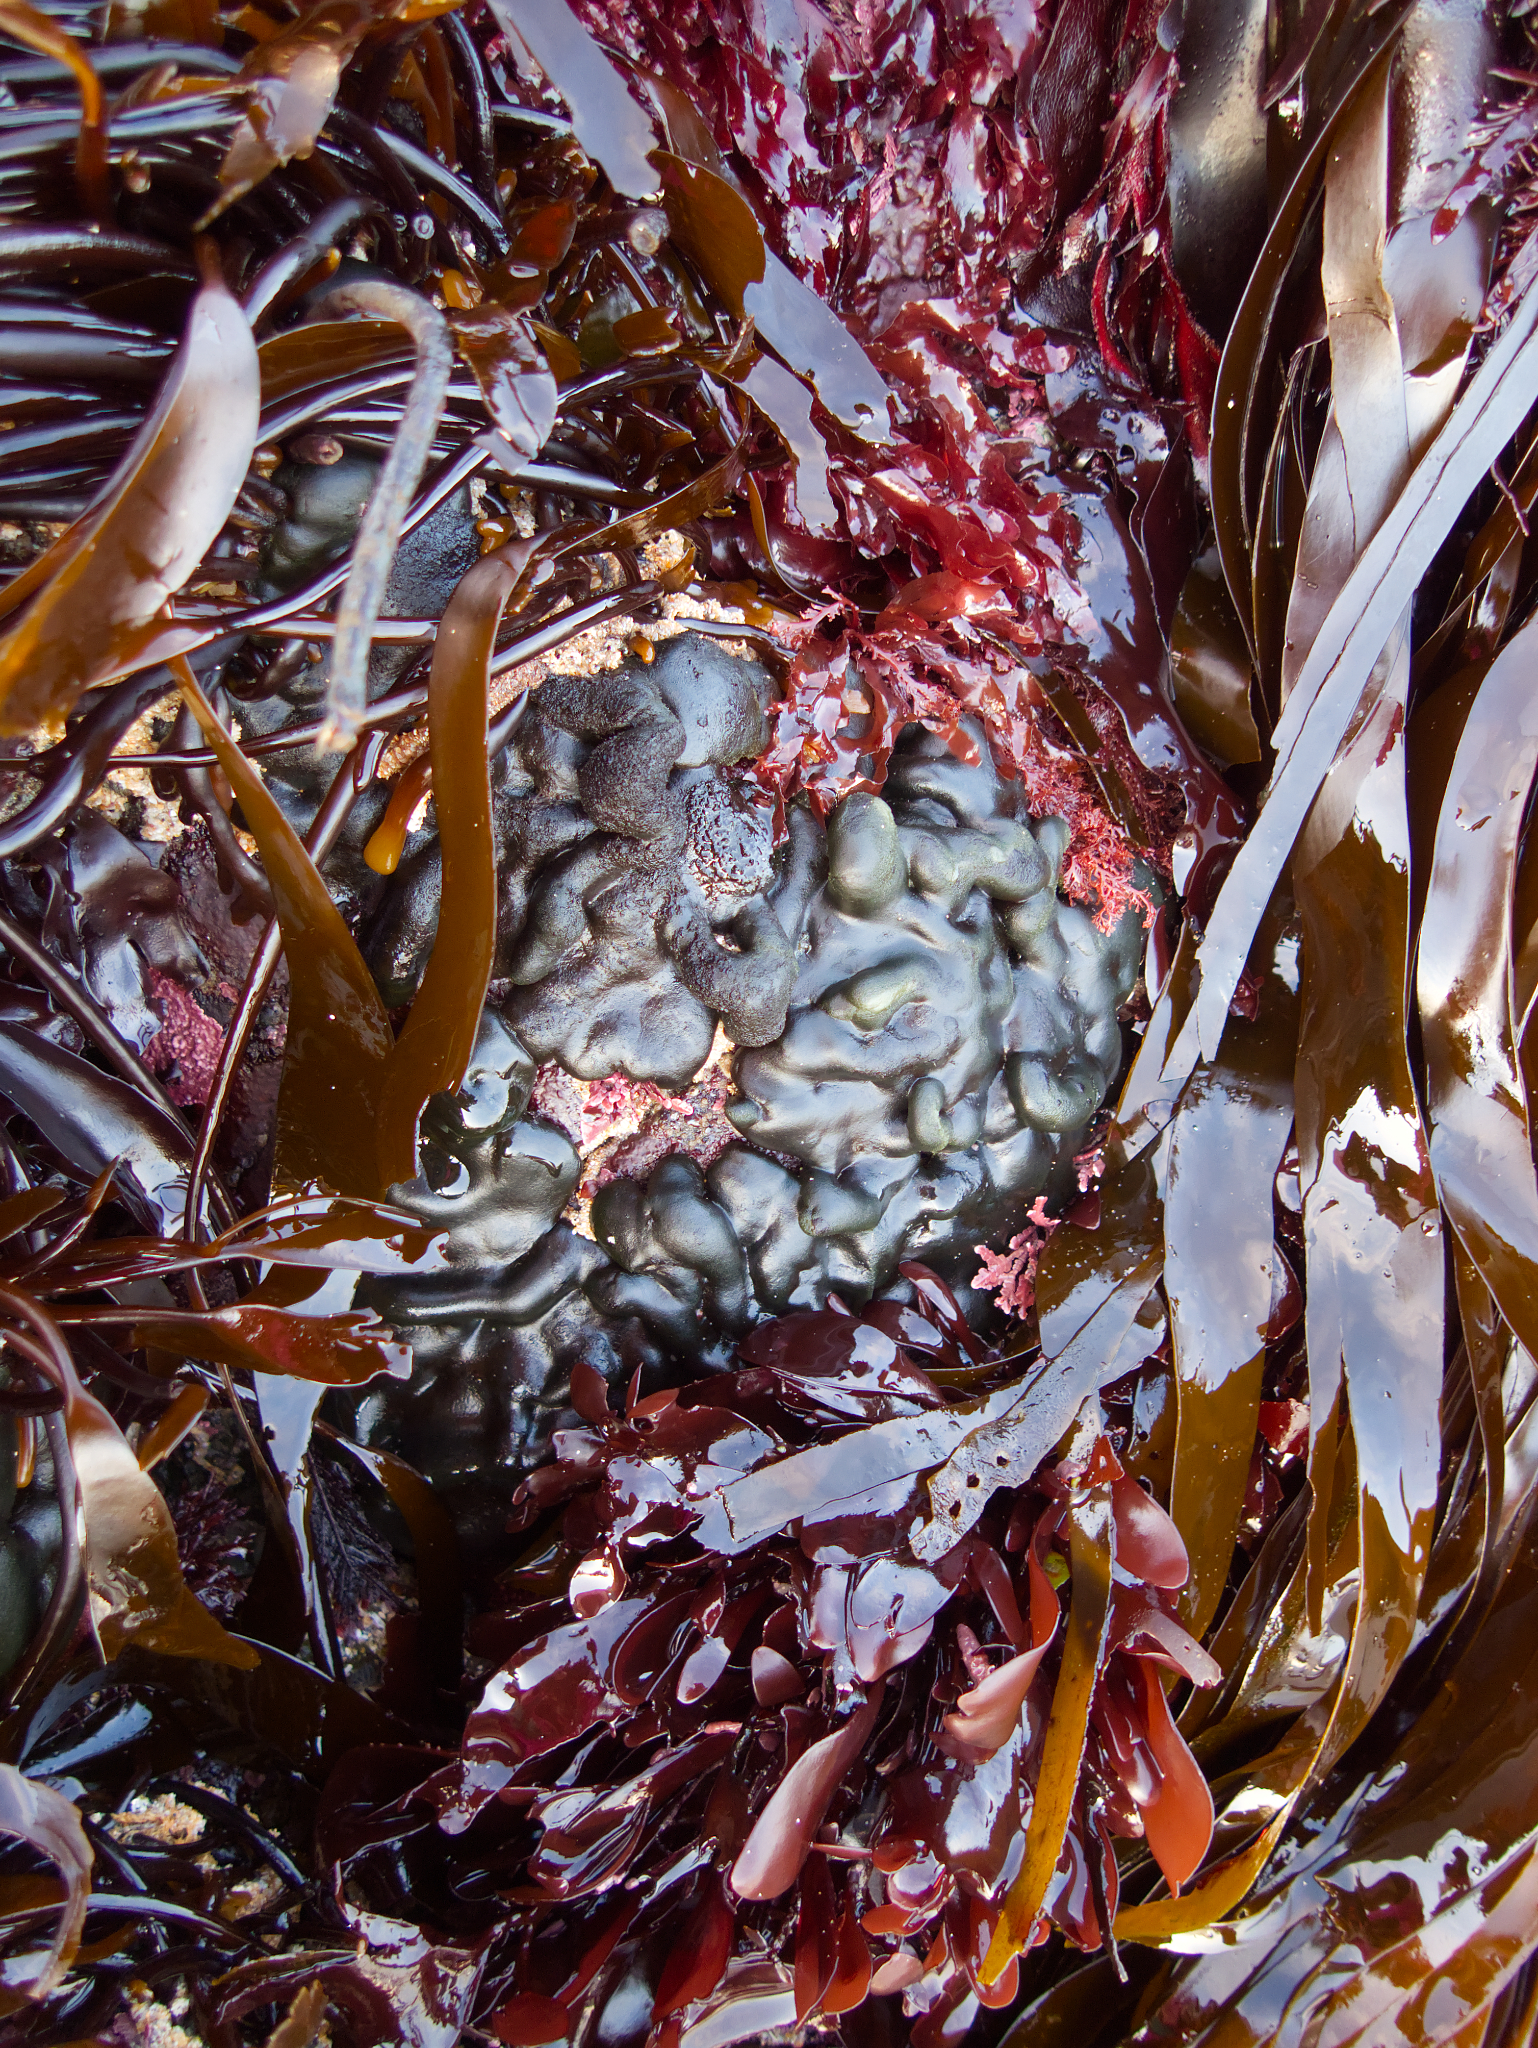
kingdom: Plantae
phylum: Chlorophyta
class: Ulvophyceae
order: Bryopsidales
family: Codiaceae
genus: Codium
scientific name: Codium setchellii
